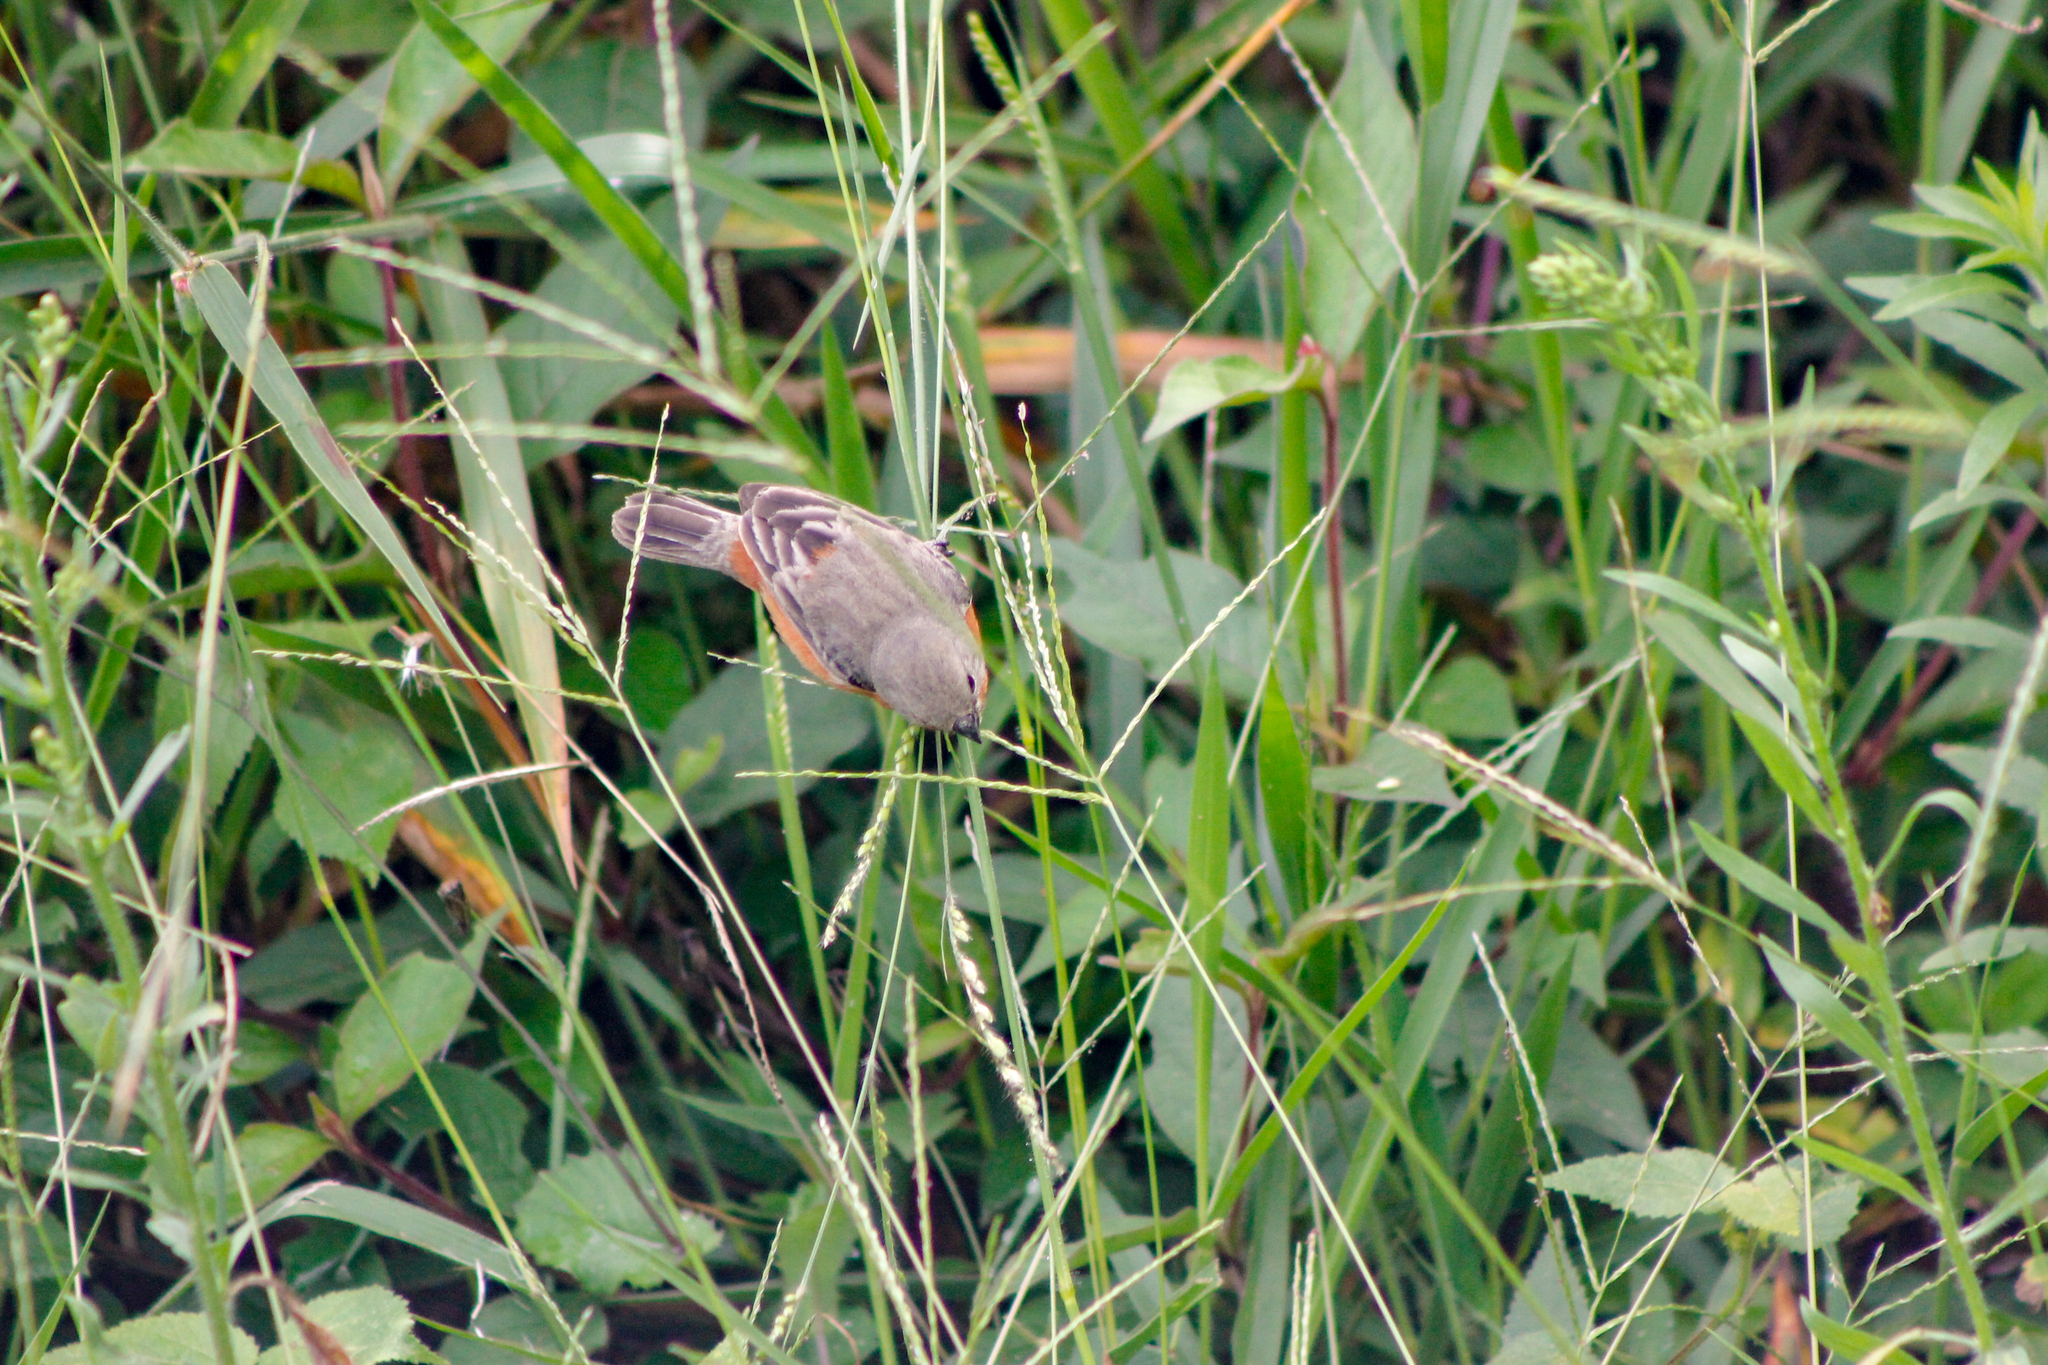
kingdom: Animalia
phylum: Chordata
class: Aves
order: Passeriformes
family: Thraupidae
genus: Sporophila
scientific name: Sporophila minuta
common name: Ruddy-breasted seedeater
